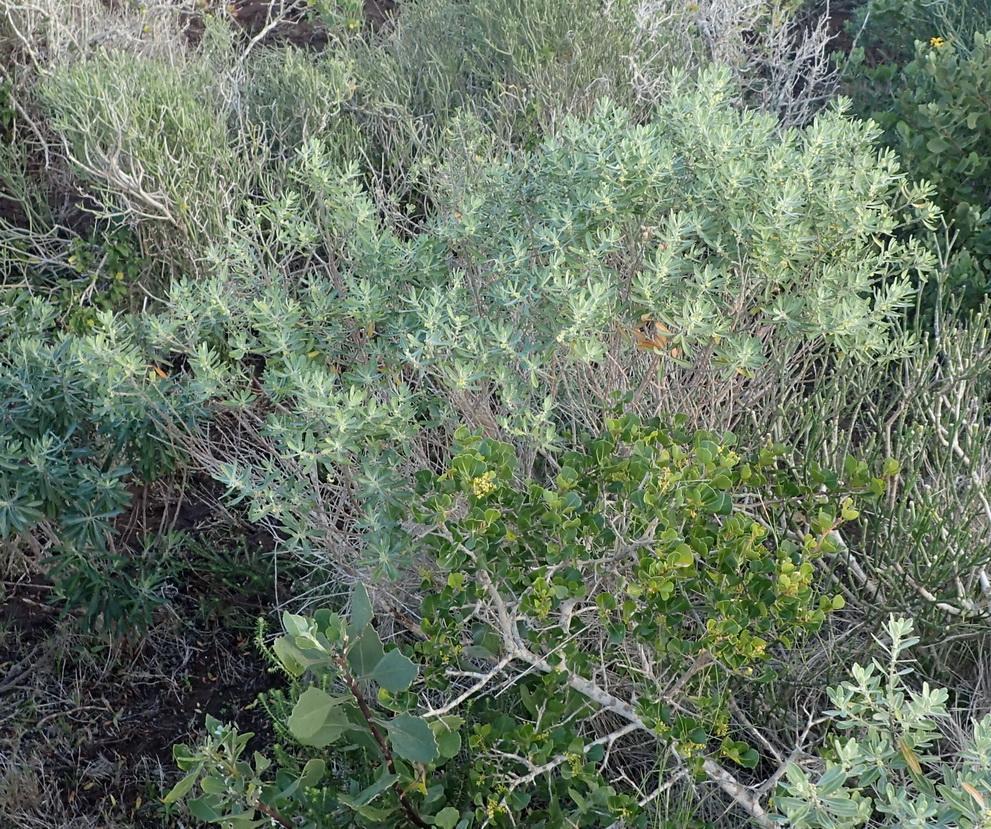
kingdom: Plantae
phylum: Tracheophyta
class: Magnoliopsida
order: Malpighiales
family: Peraceae
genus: Clutia
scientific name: Clutia daphnoides
